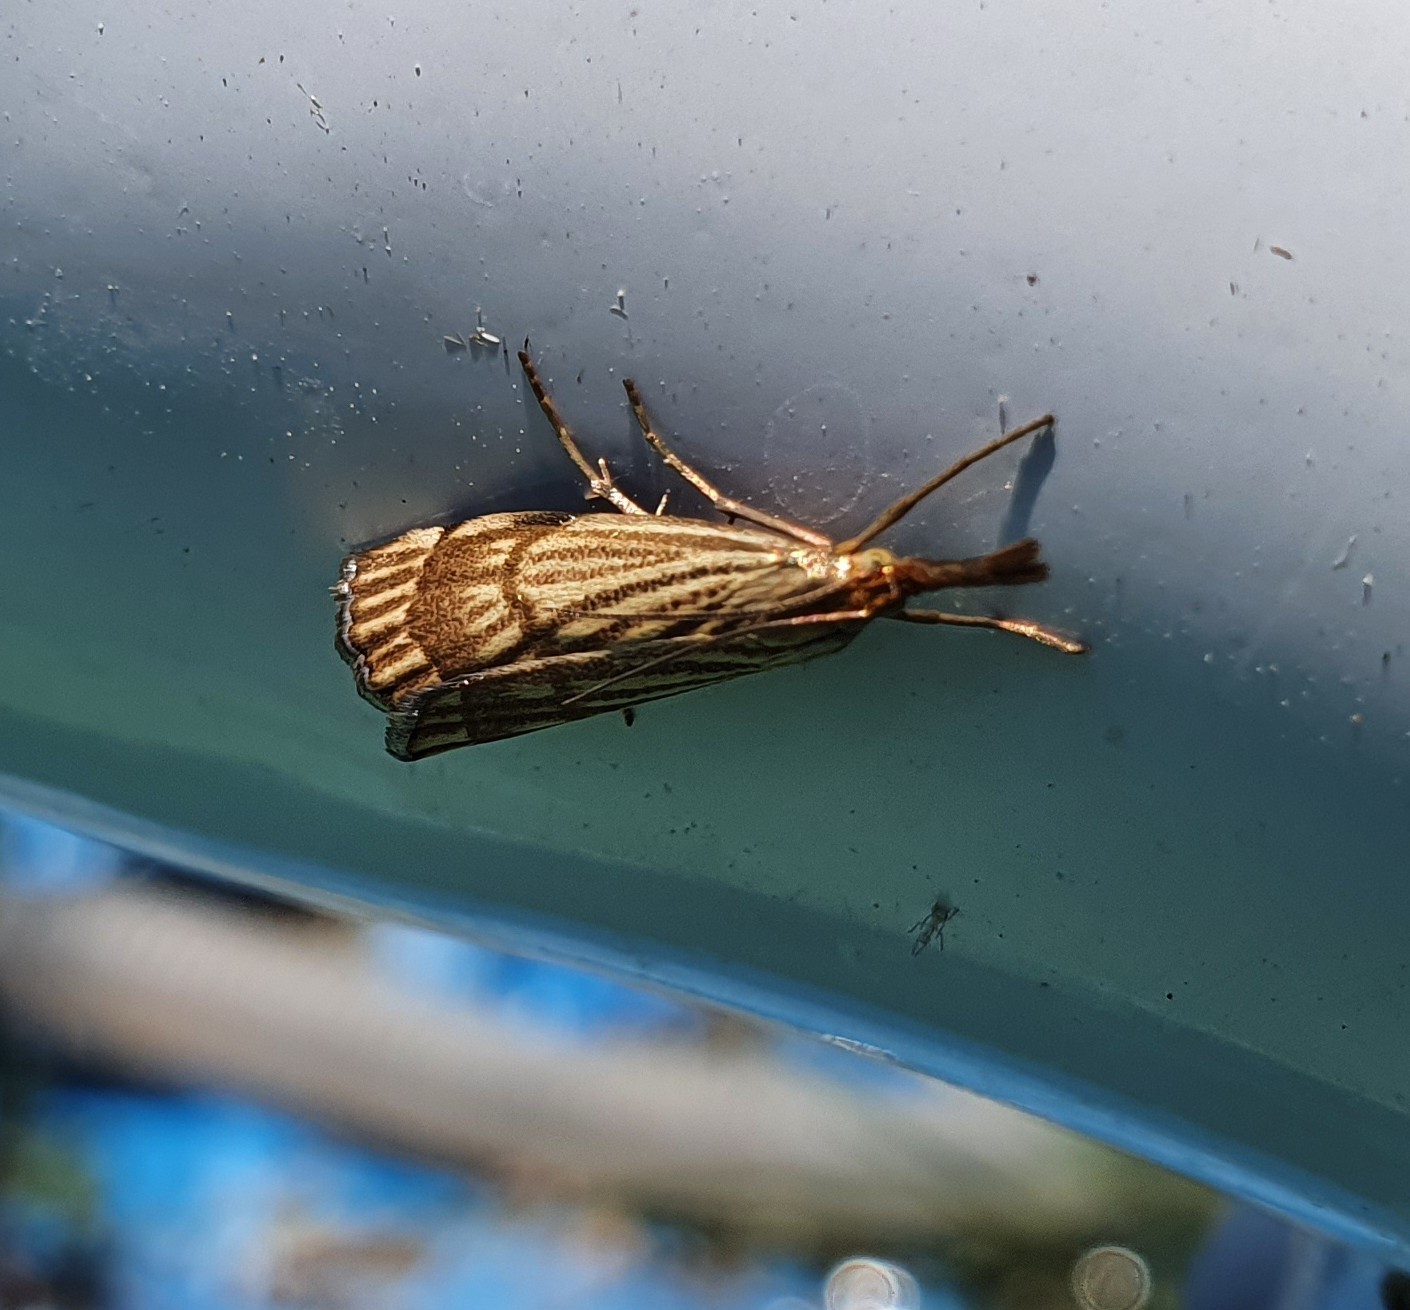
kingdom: Animalia
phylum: Arthropoda
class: Insecta
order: Lepidoptera
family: Crambidae
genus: Chrysocrambus
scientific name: Chrysocrambus linetella
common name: Orange-bar grass-veneer
